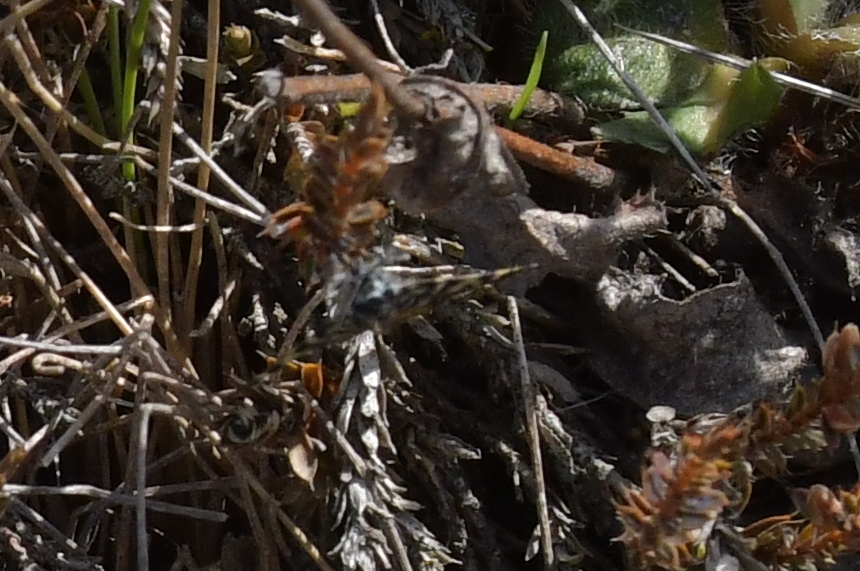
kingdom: Animalia
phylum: Arthropoda
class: Insecta
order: Lepidoptera
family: Geometridae
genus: Dichromodes
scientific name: Dichromodes ida
